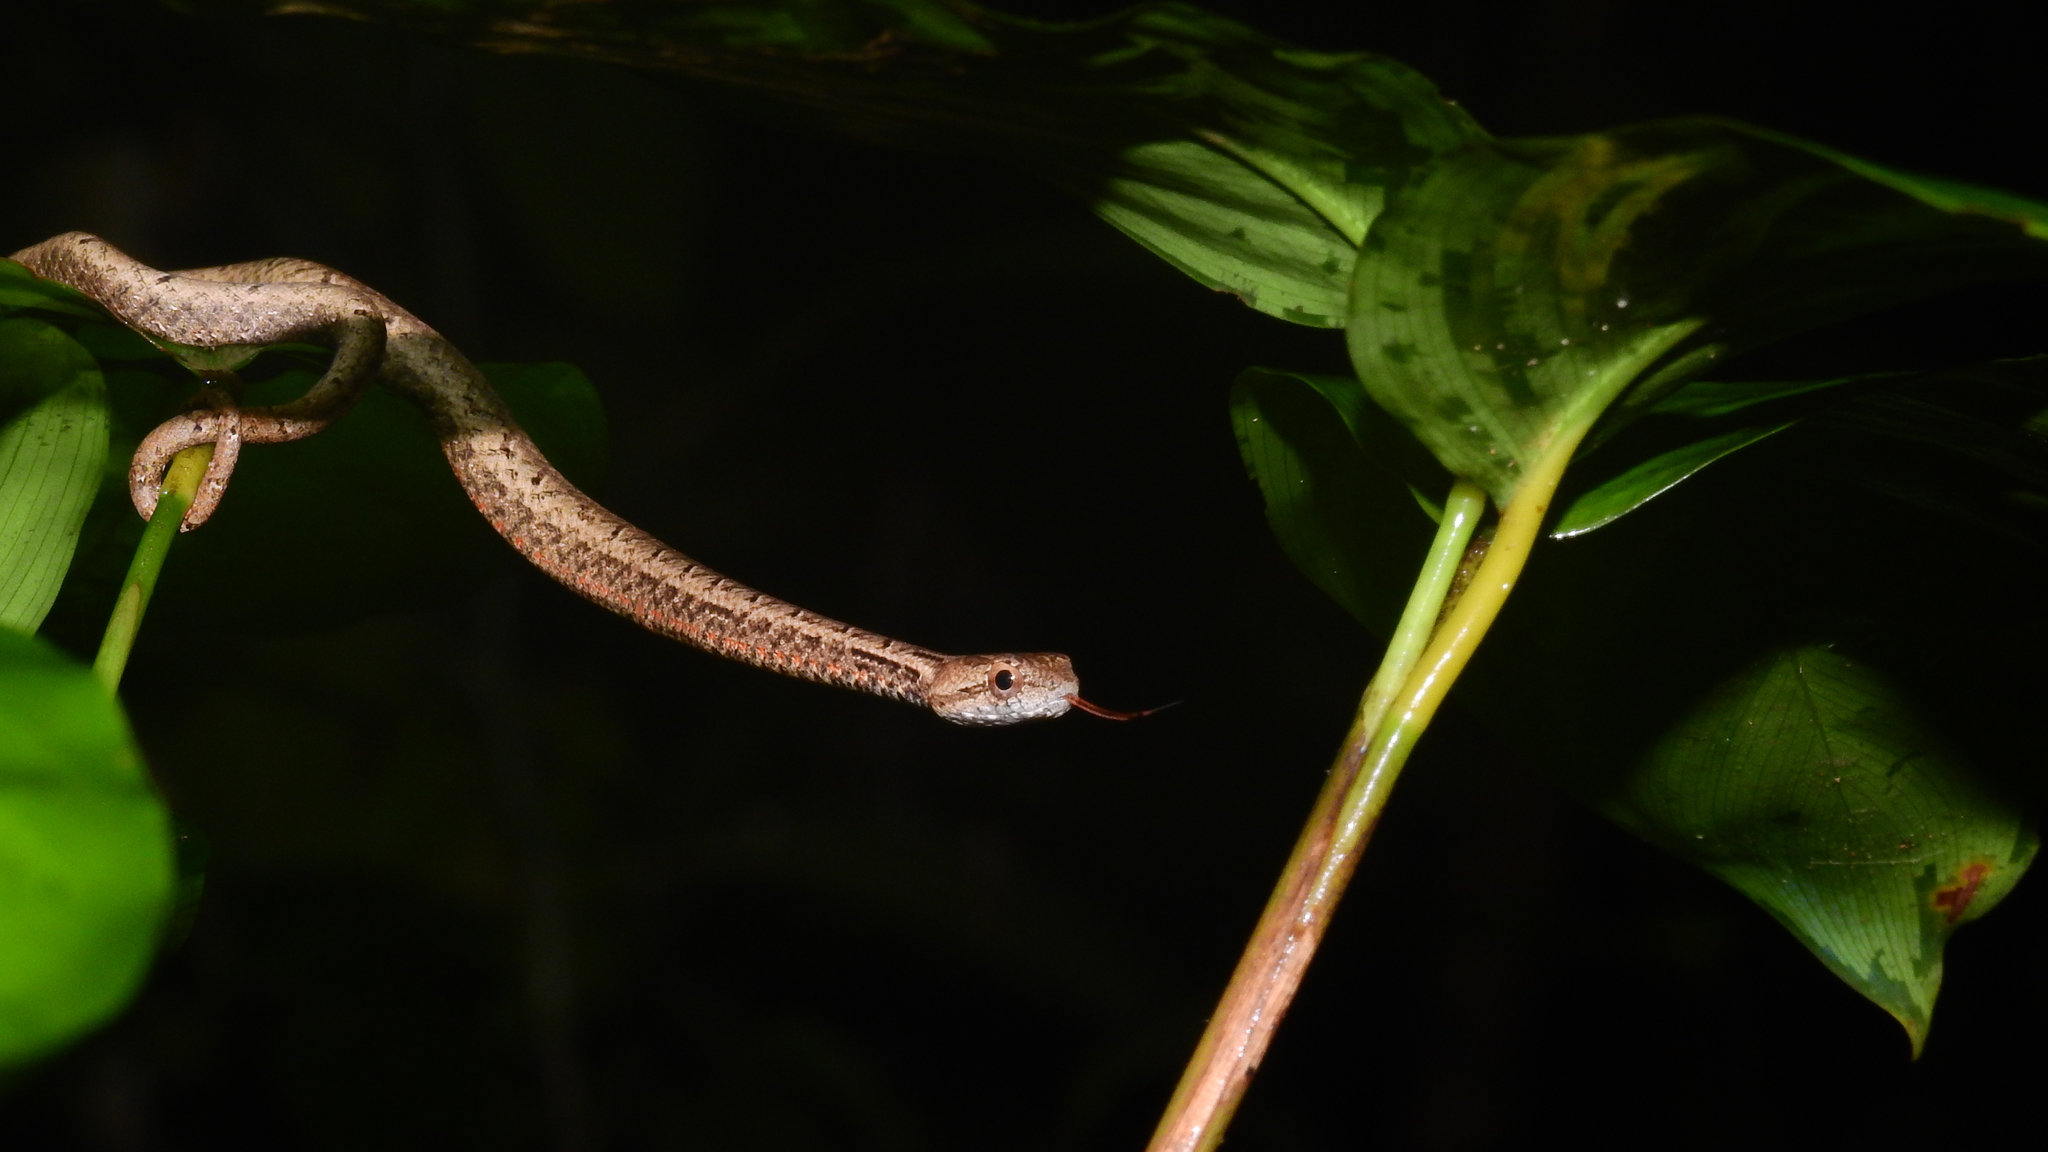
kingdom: Animalia
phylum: Chordata
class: Squamata
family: Pseudaspididae
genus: Psammodynastes
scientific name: Psammodynastes pulverulentus
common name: Common mock viper
